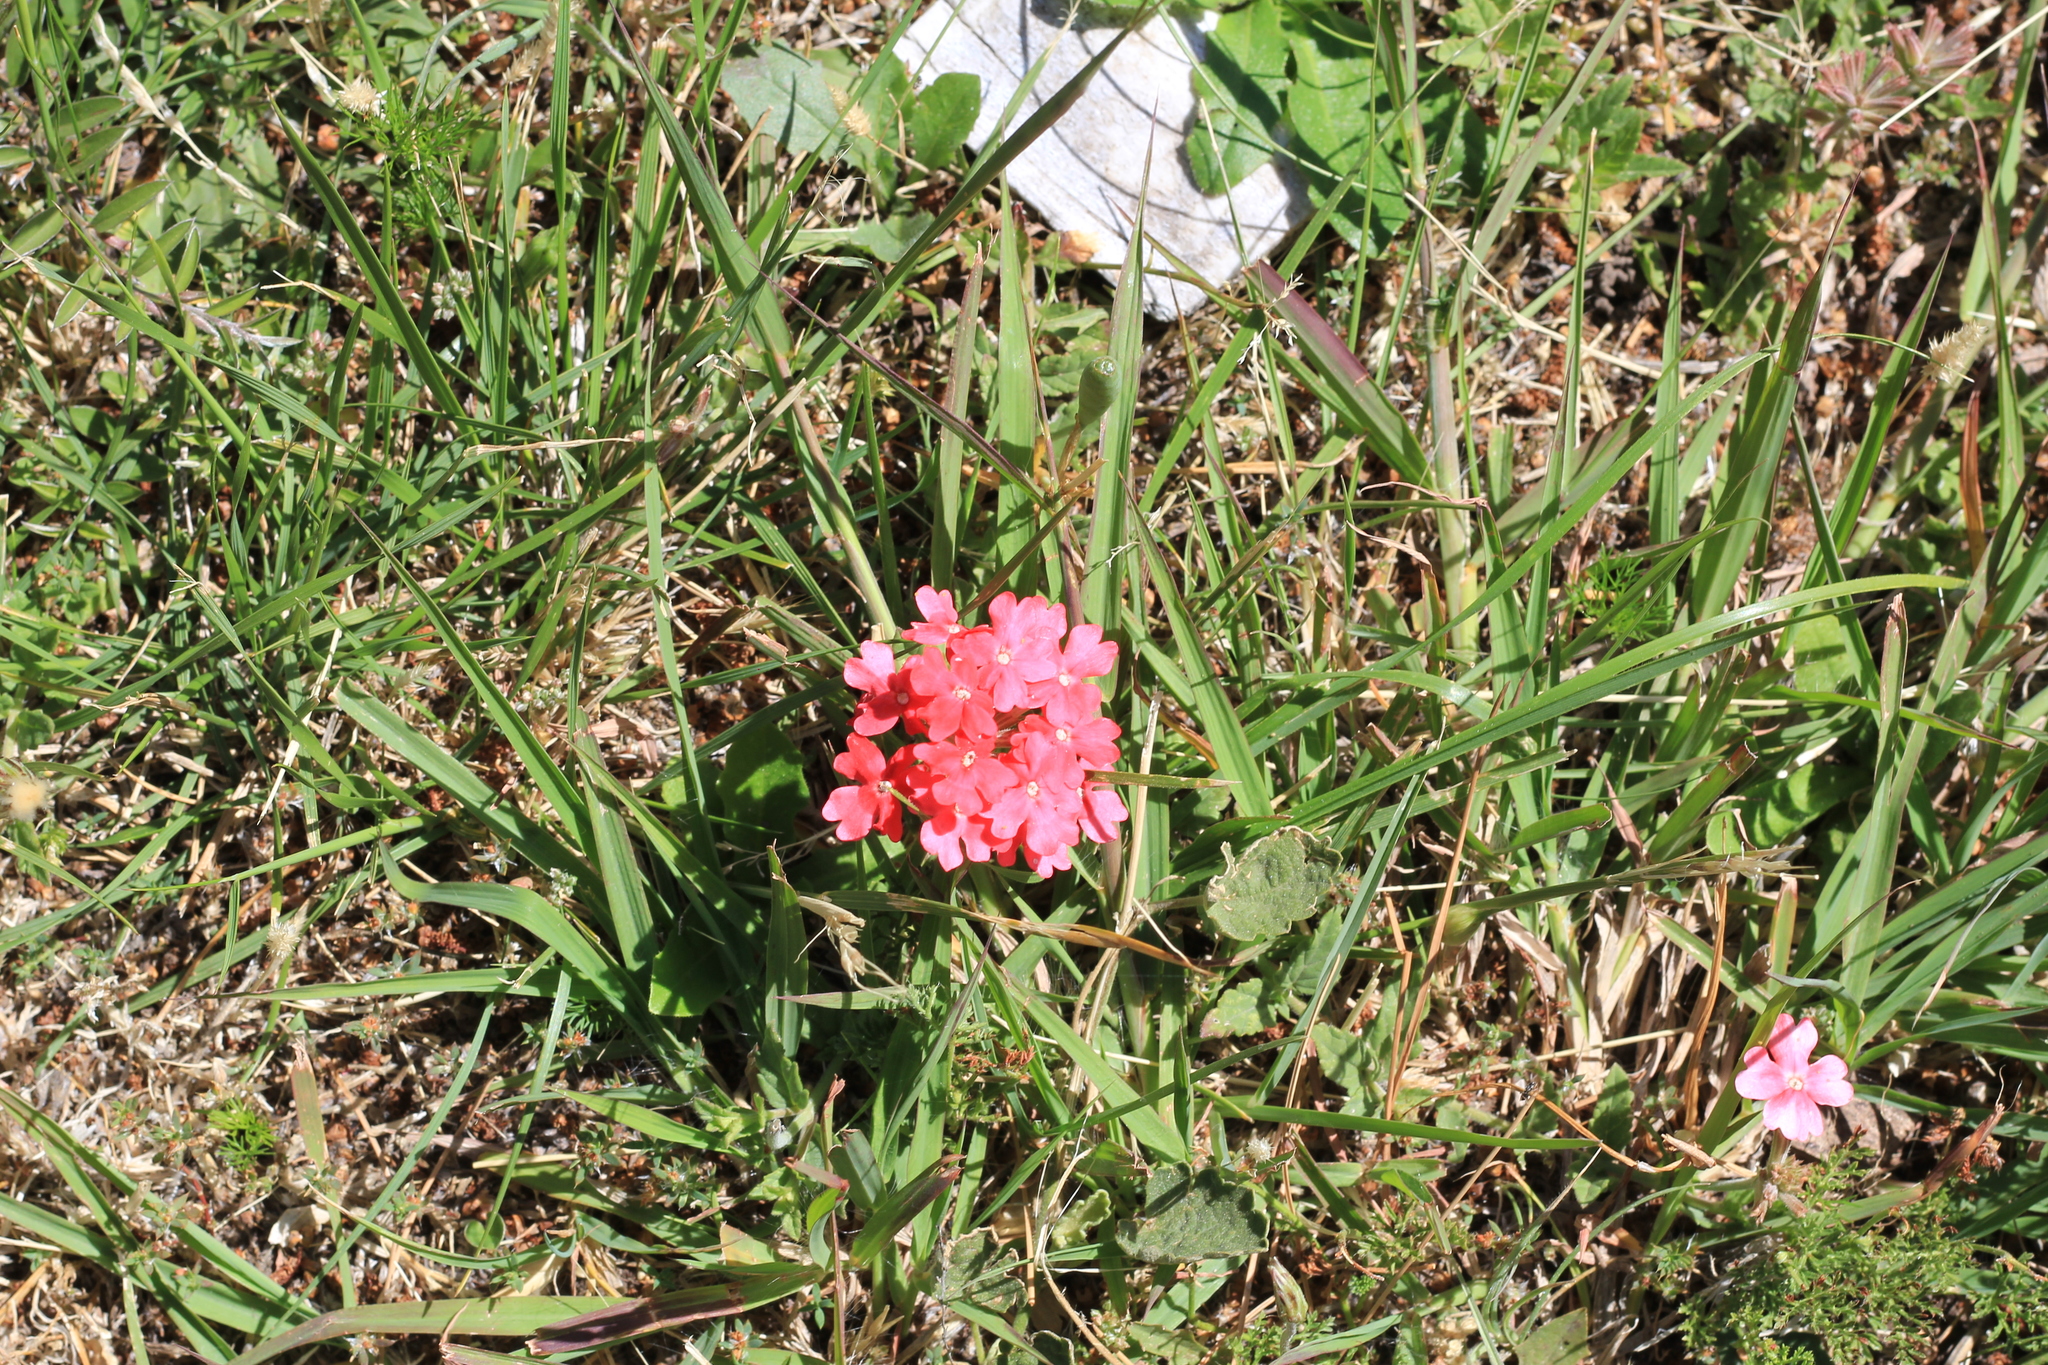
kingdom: Plantae
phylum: Tracheophyta
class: Magnoliopsida
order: Lamiales
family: Verbenaceae
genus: Verbena
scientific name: Verbena peruviana
